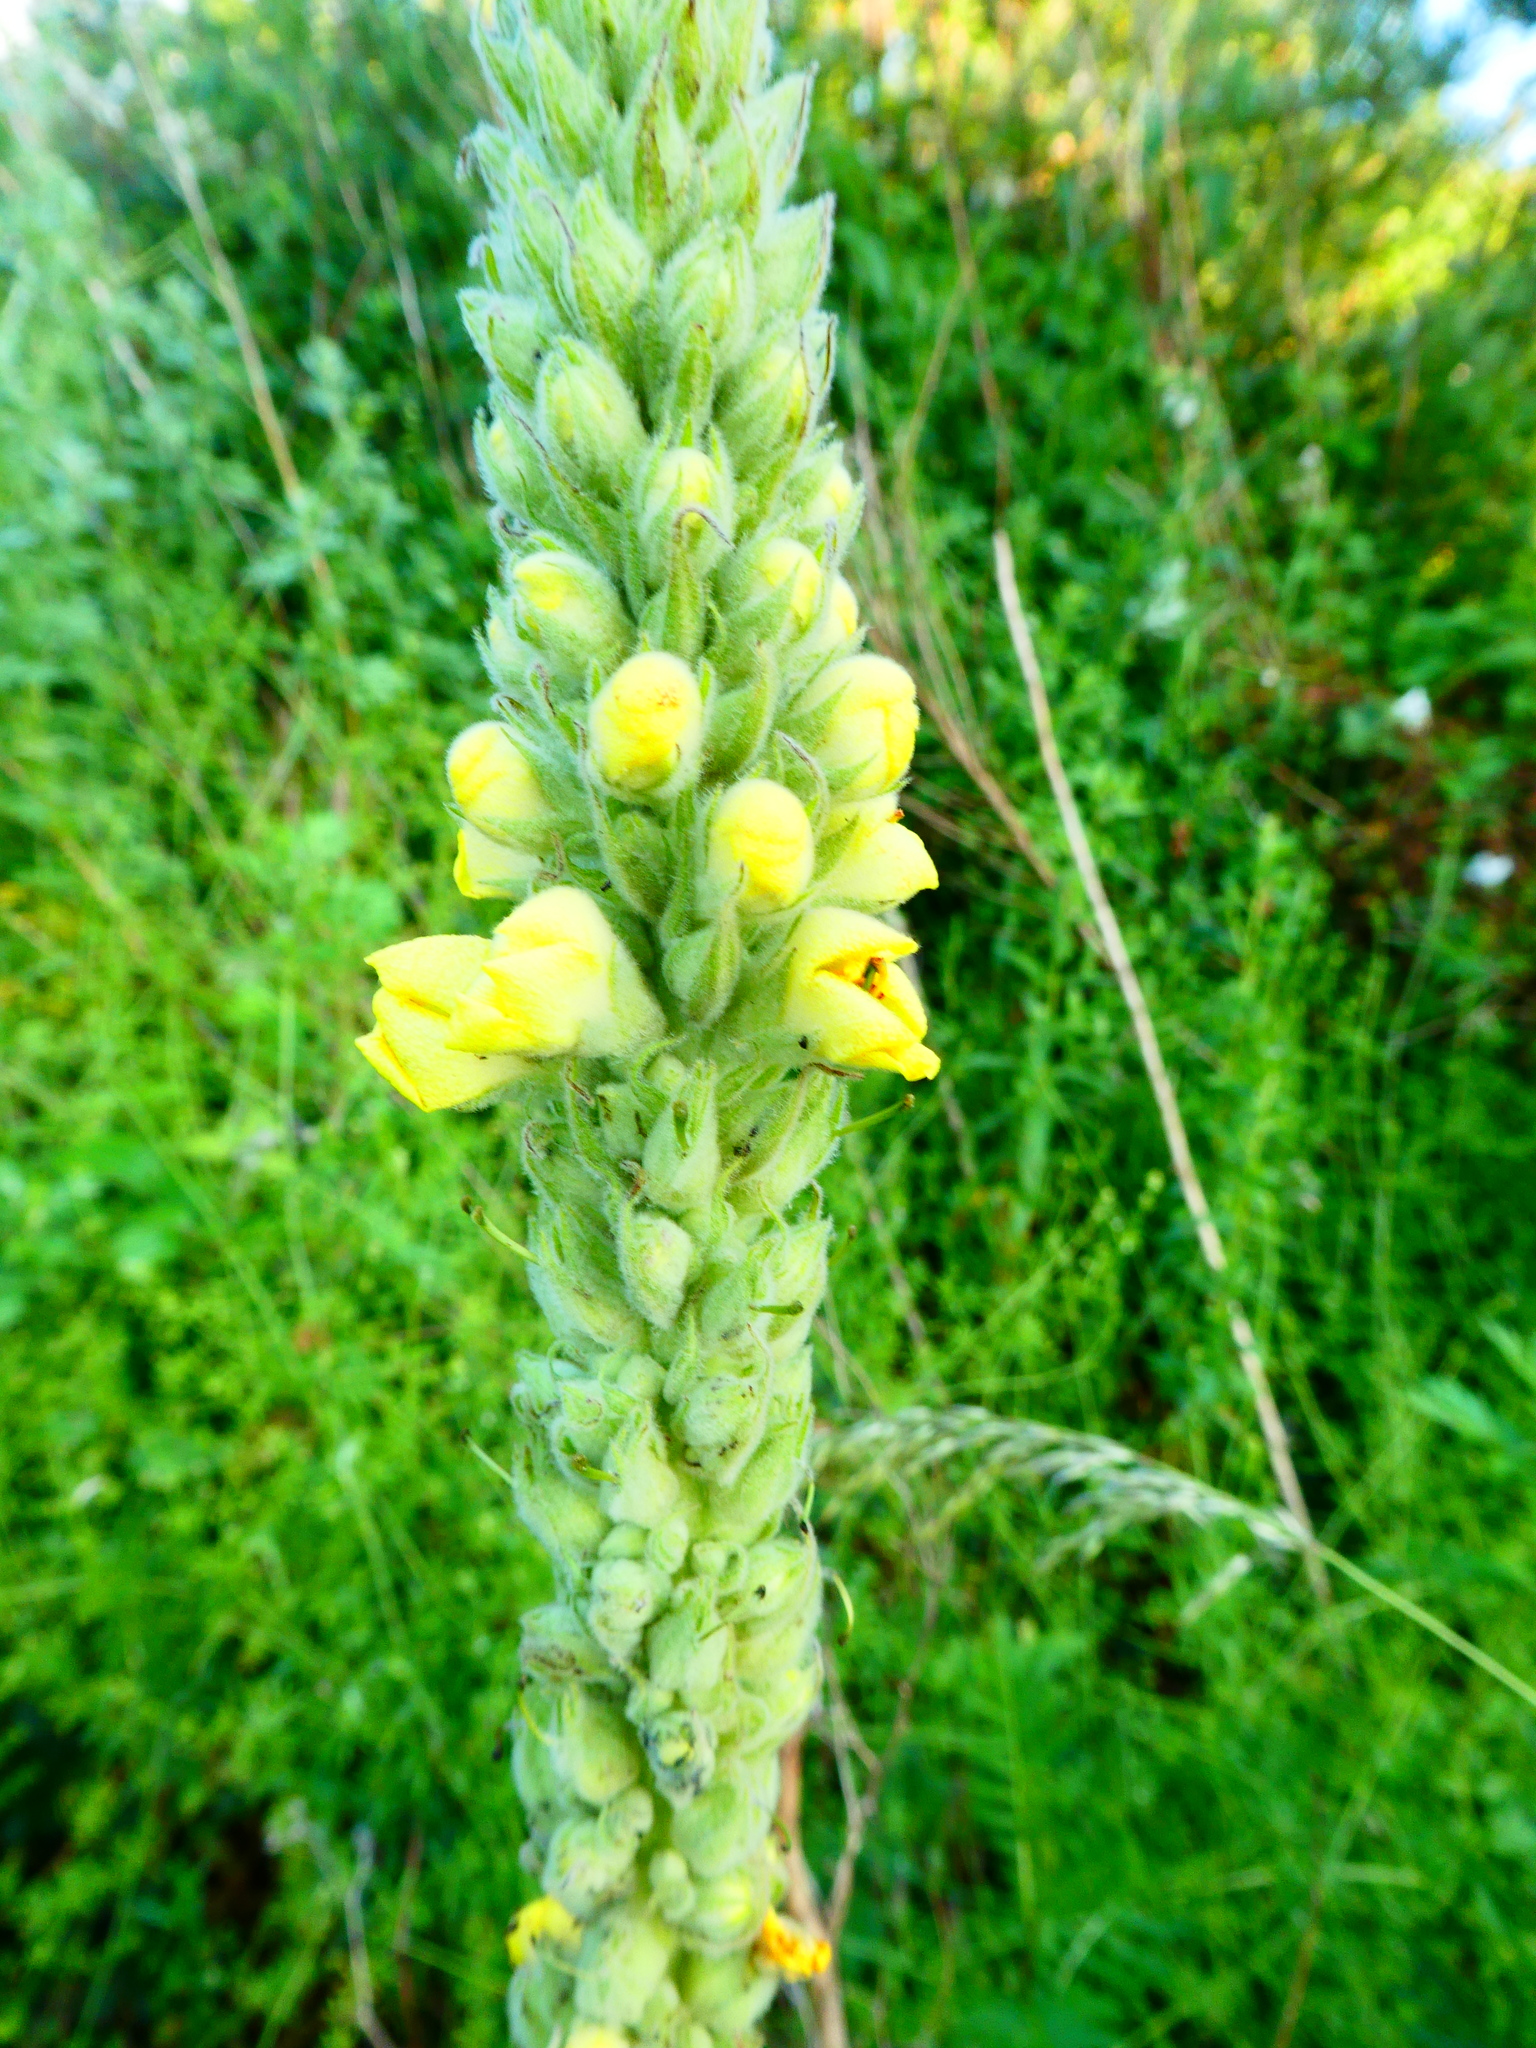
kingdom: Plantae
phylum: Tracheophyta
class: Magnoliopsida
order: Lamiales
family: Scrophulariaceae
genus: Verbascum
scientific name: Verbascum thapsus
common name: Common mullein
